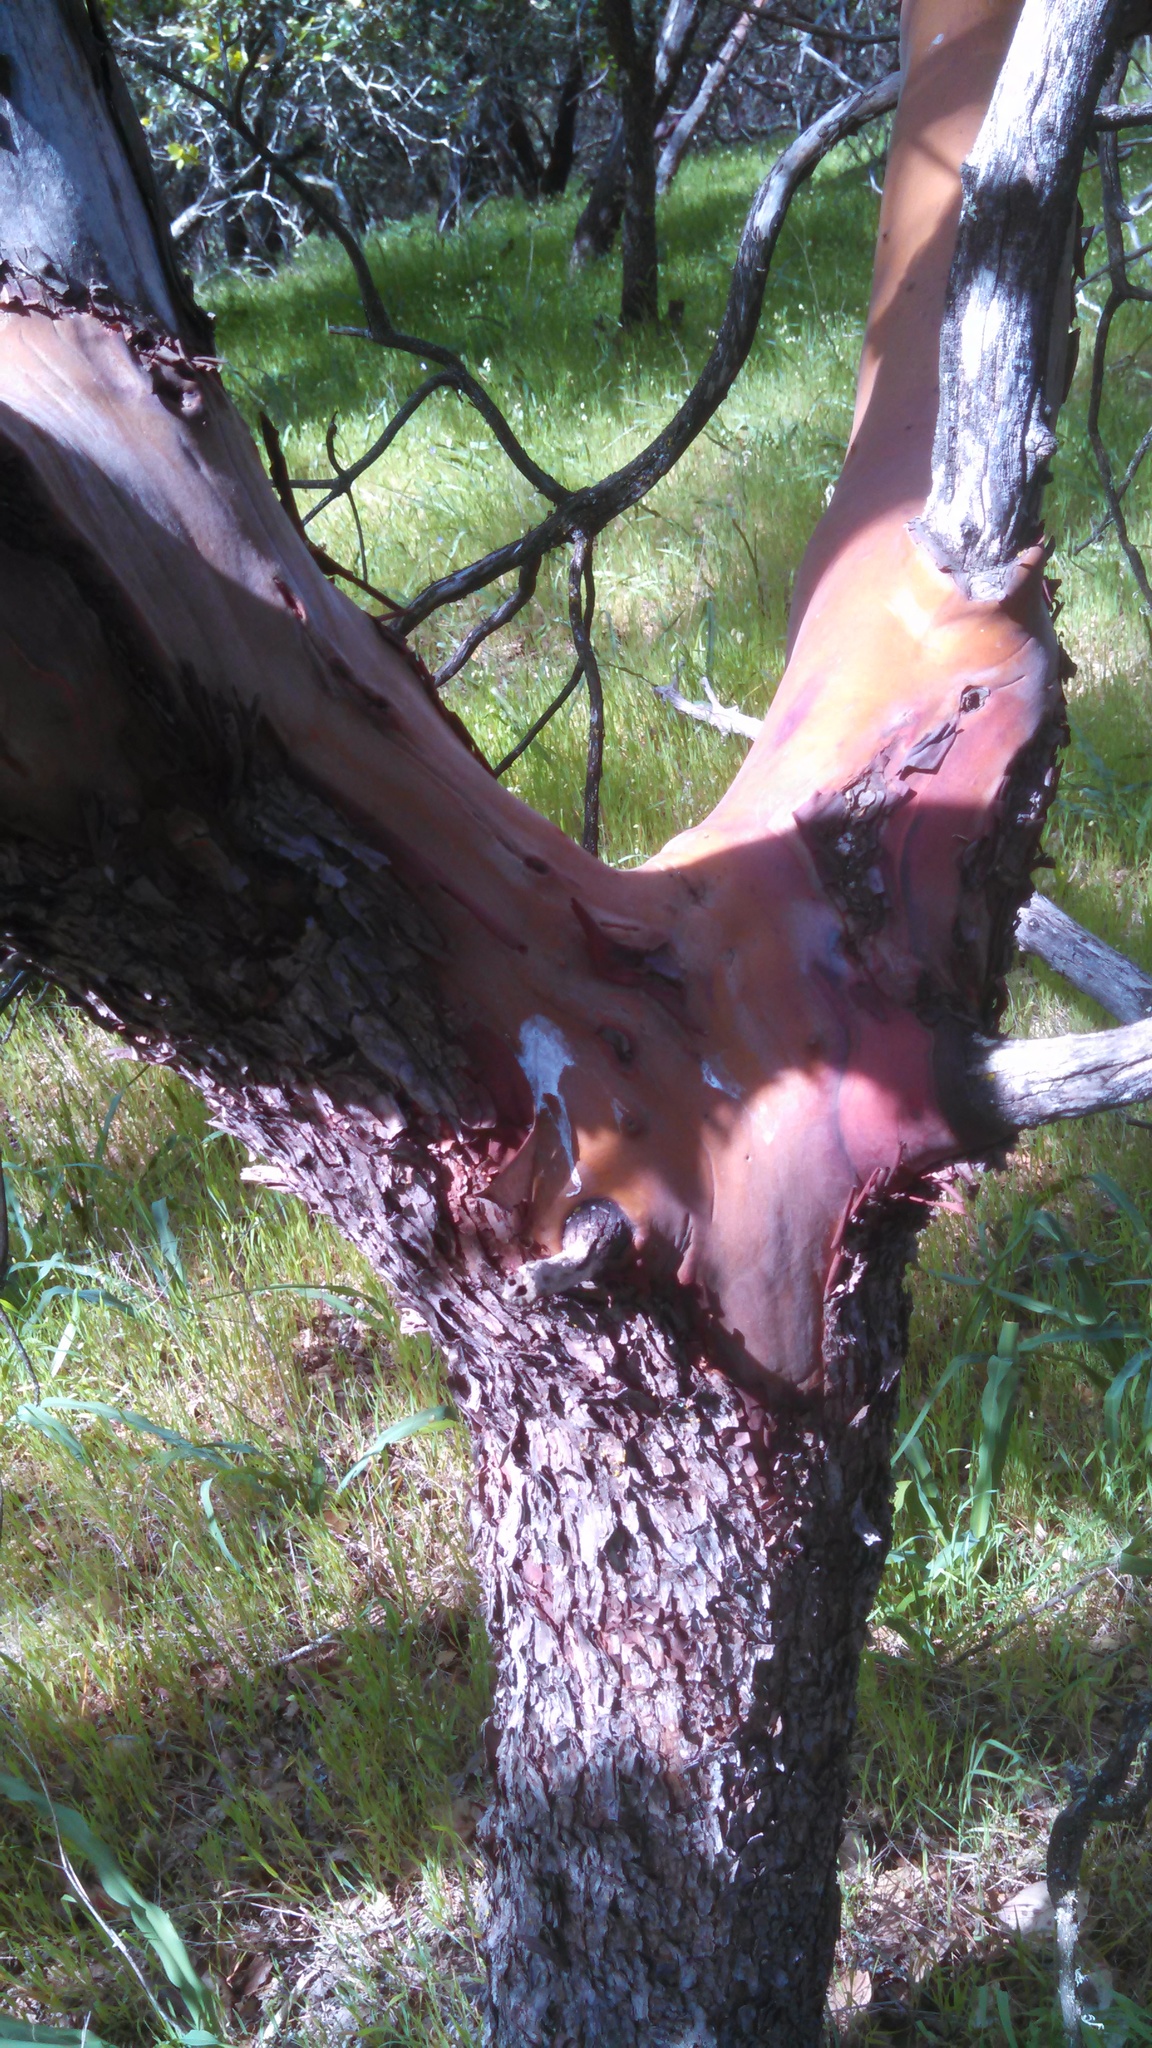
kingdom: Plantae
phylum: Tracheophyta
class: Magnoliopsida
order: Ericales
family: Ericaceae
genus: Arbutus
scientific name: Arbutus menziesii
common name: Pacific madrone
